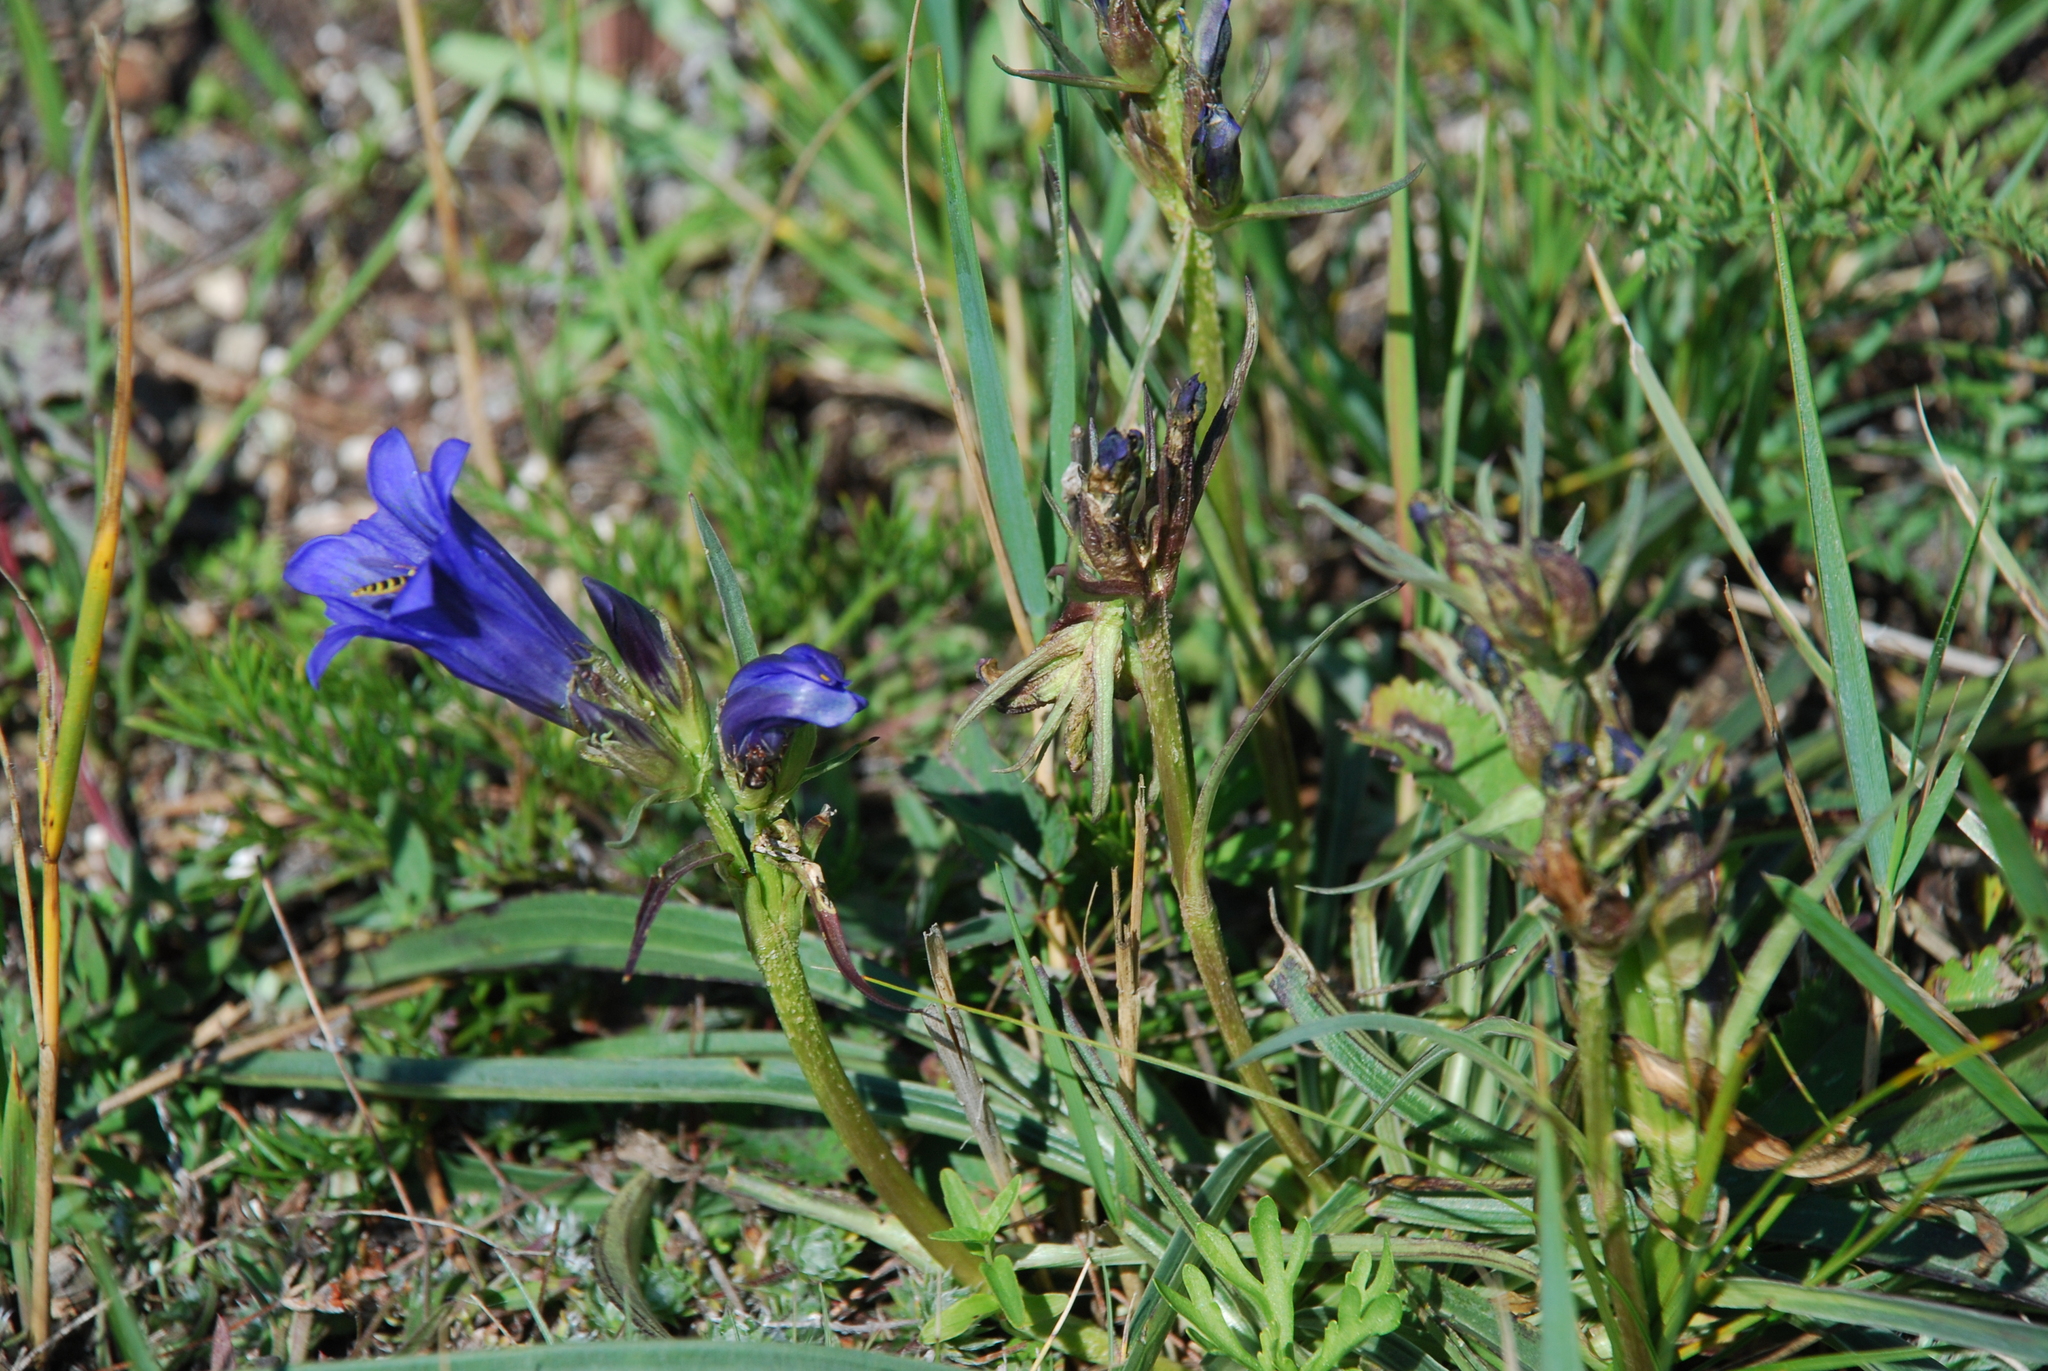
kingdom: Plantae
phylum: Tracheophyta
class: Magnoliopsida
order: Gentianales
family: Gentianaceae
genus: Gentiana
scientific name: Gentiana decumbens
